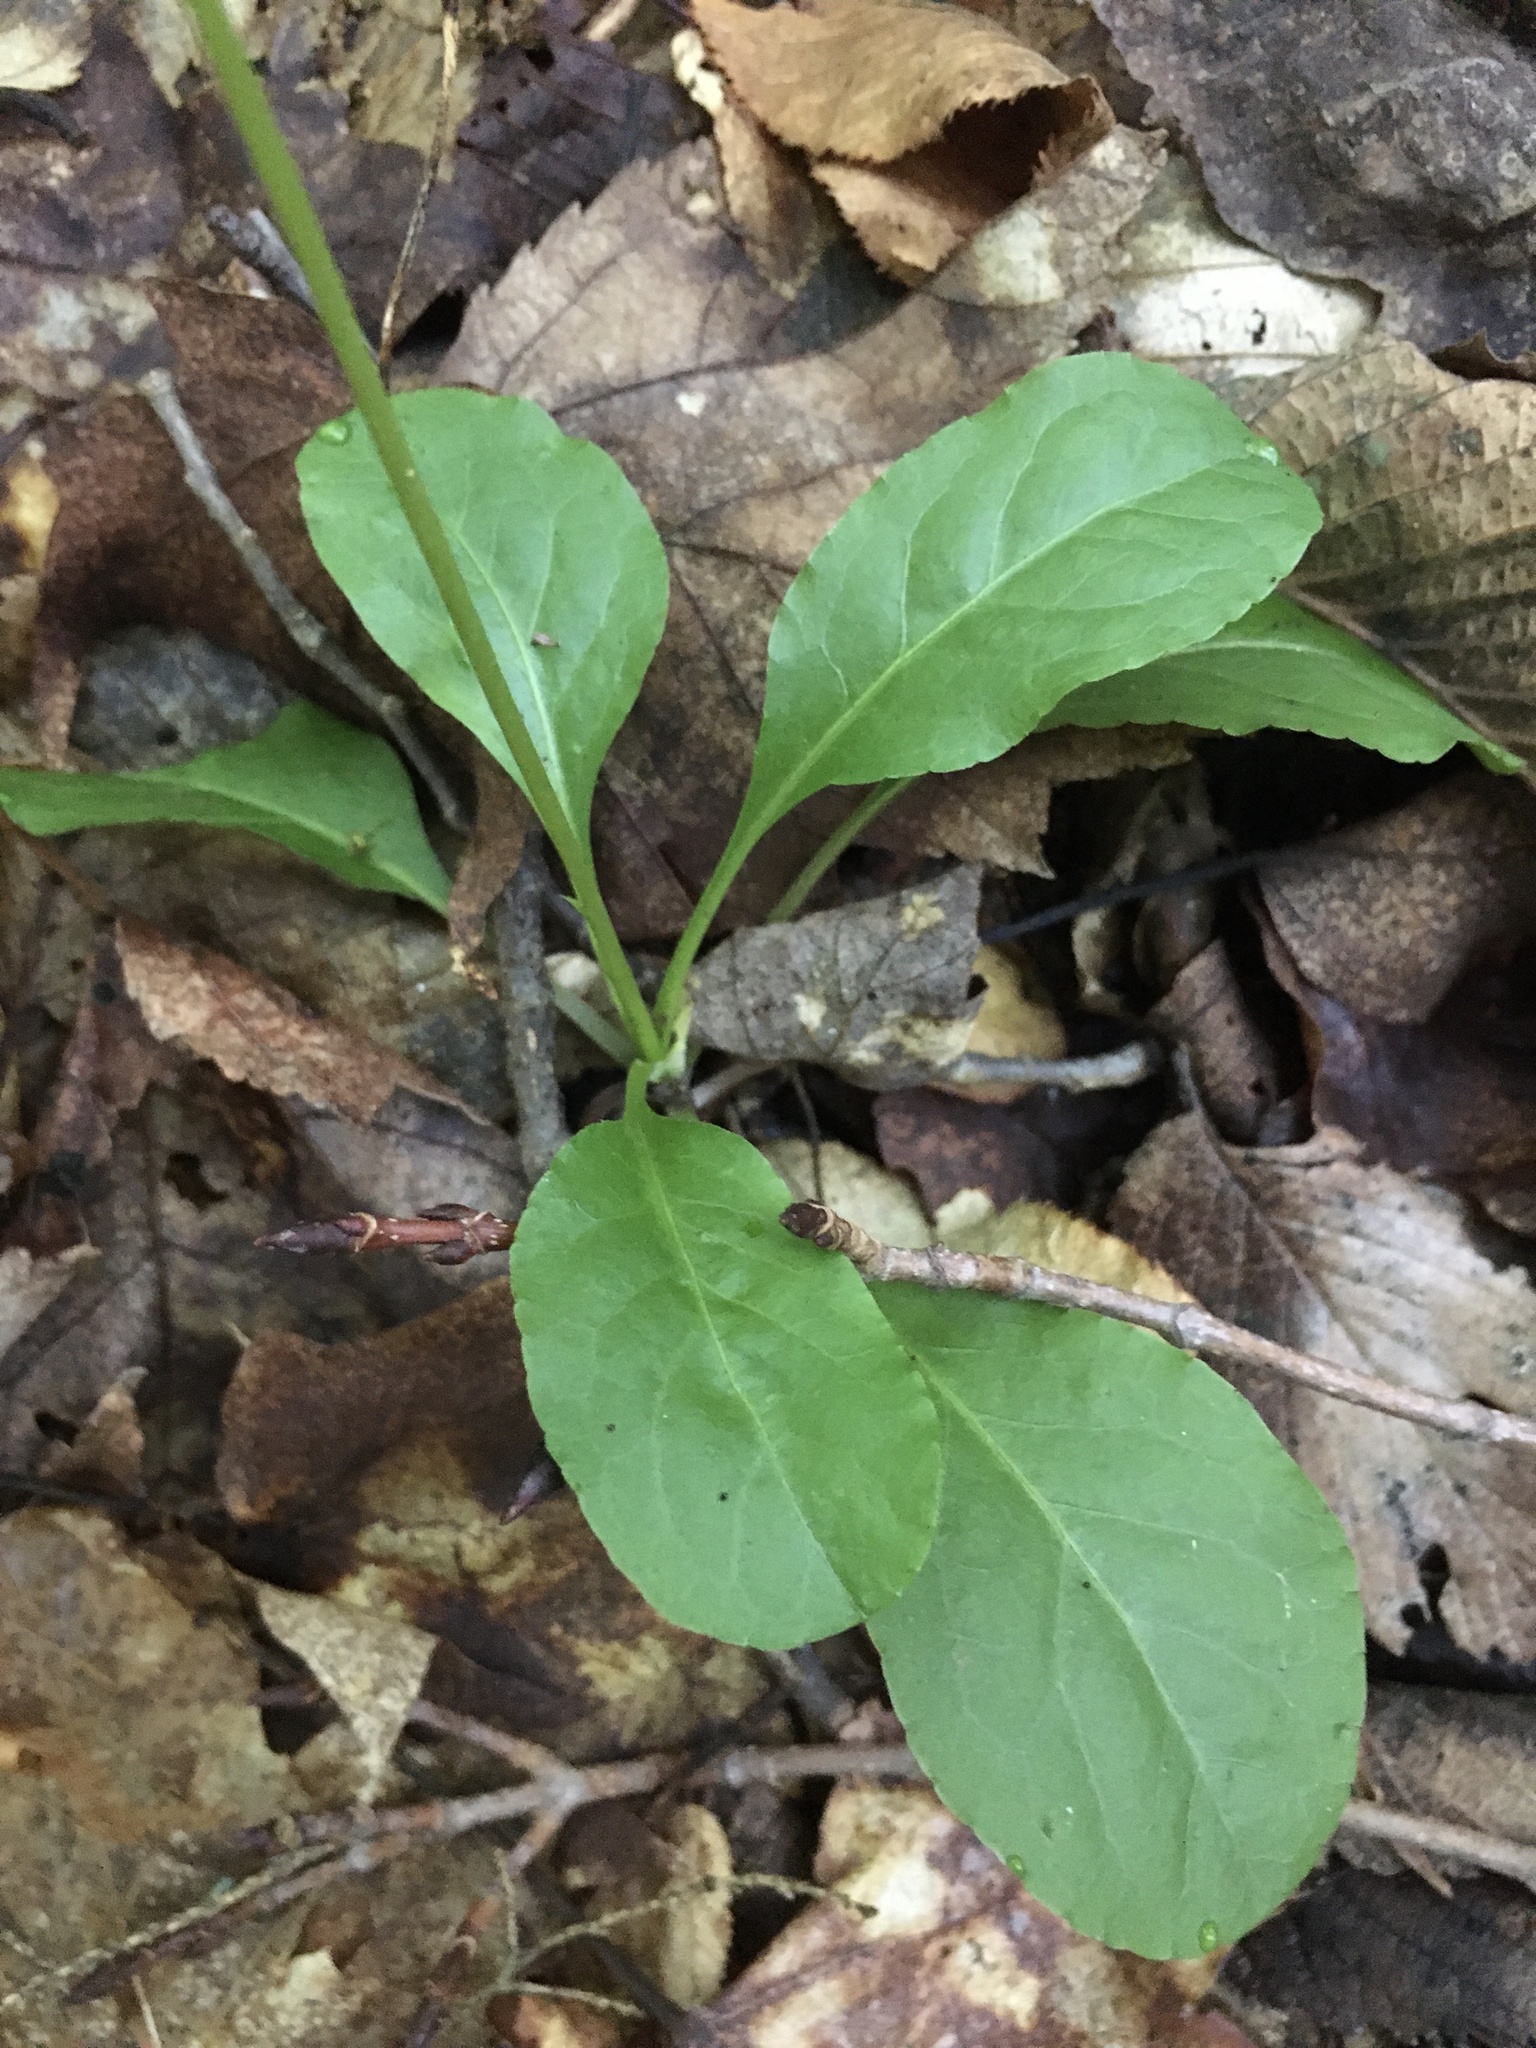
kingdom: Plantae
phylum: Tracheophyta
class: Magnoliopsida
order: Ericales
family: Ericaceae
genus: Pyrola
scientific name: Pyrola elliptica
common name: Shinleaf
